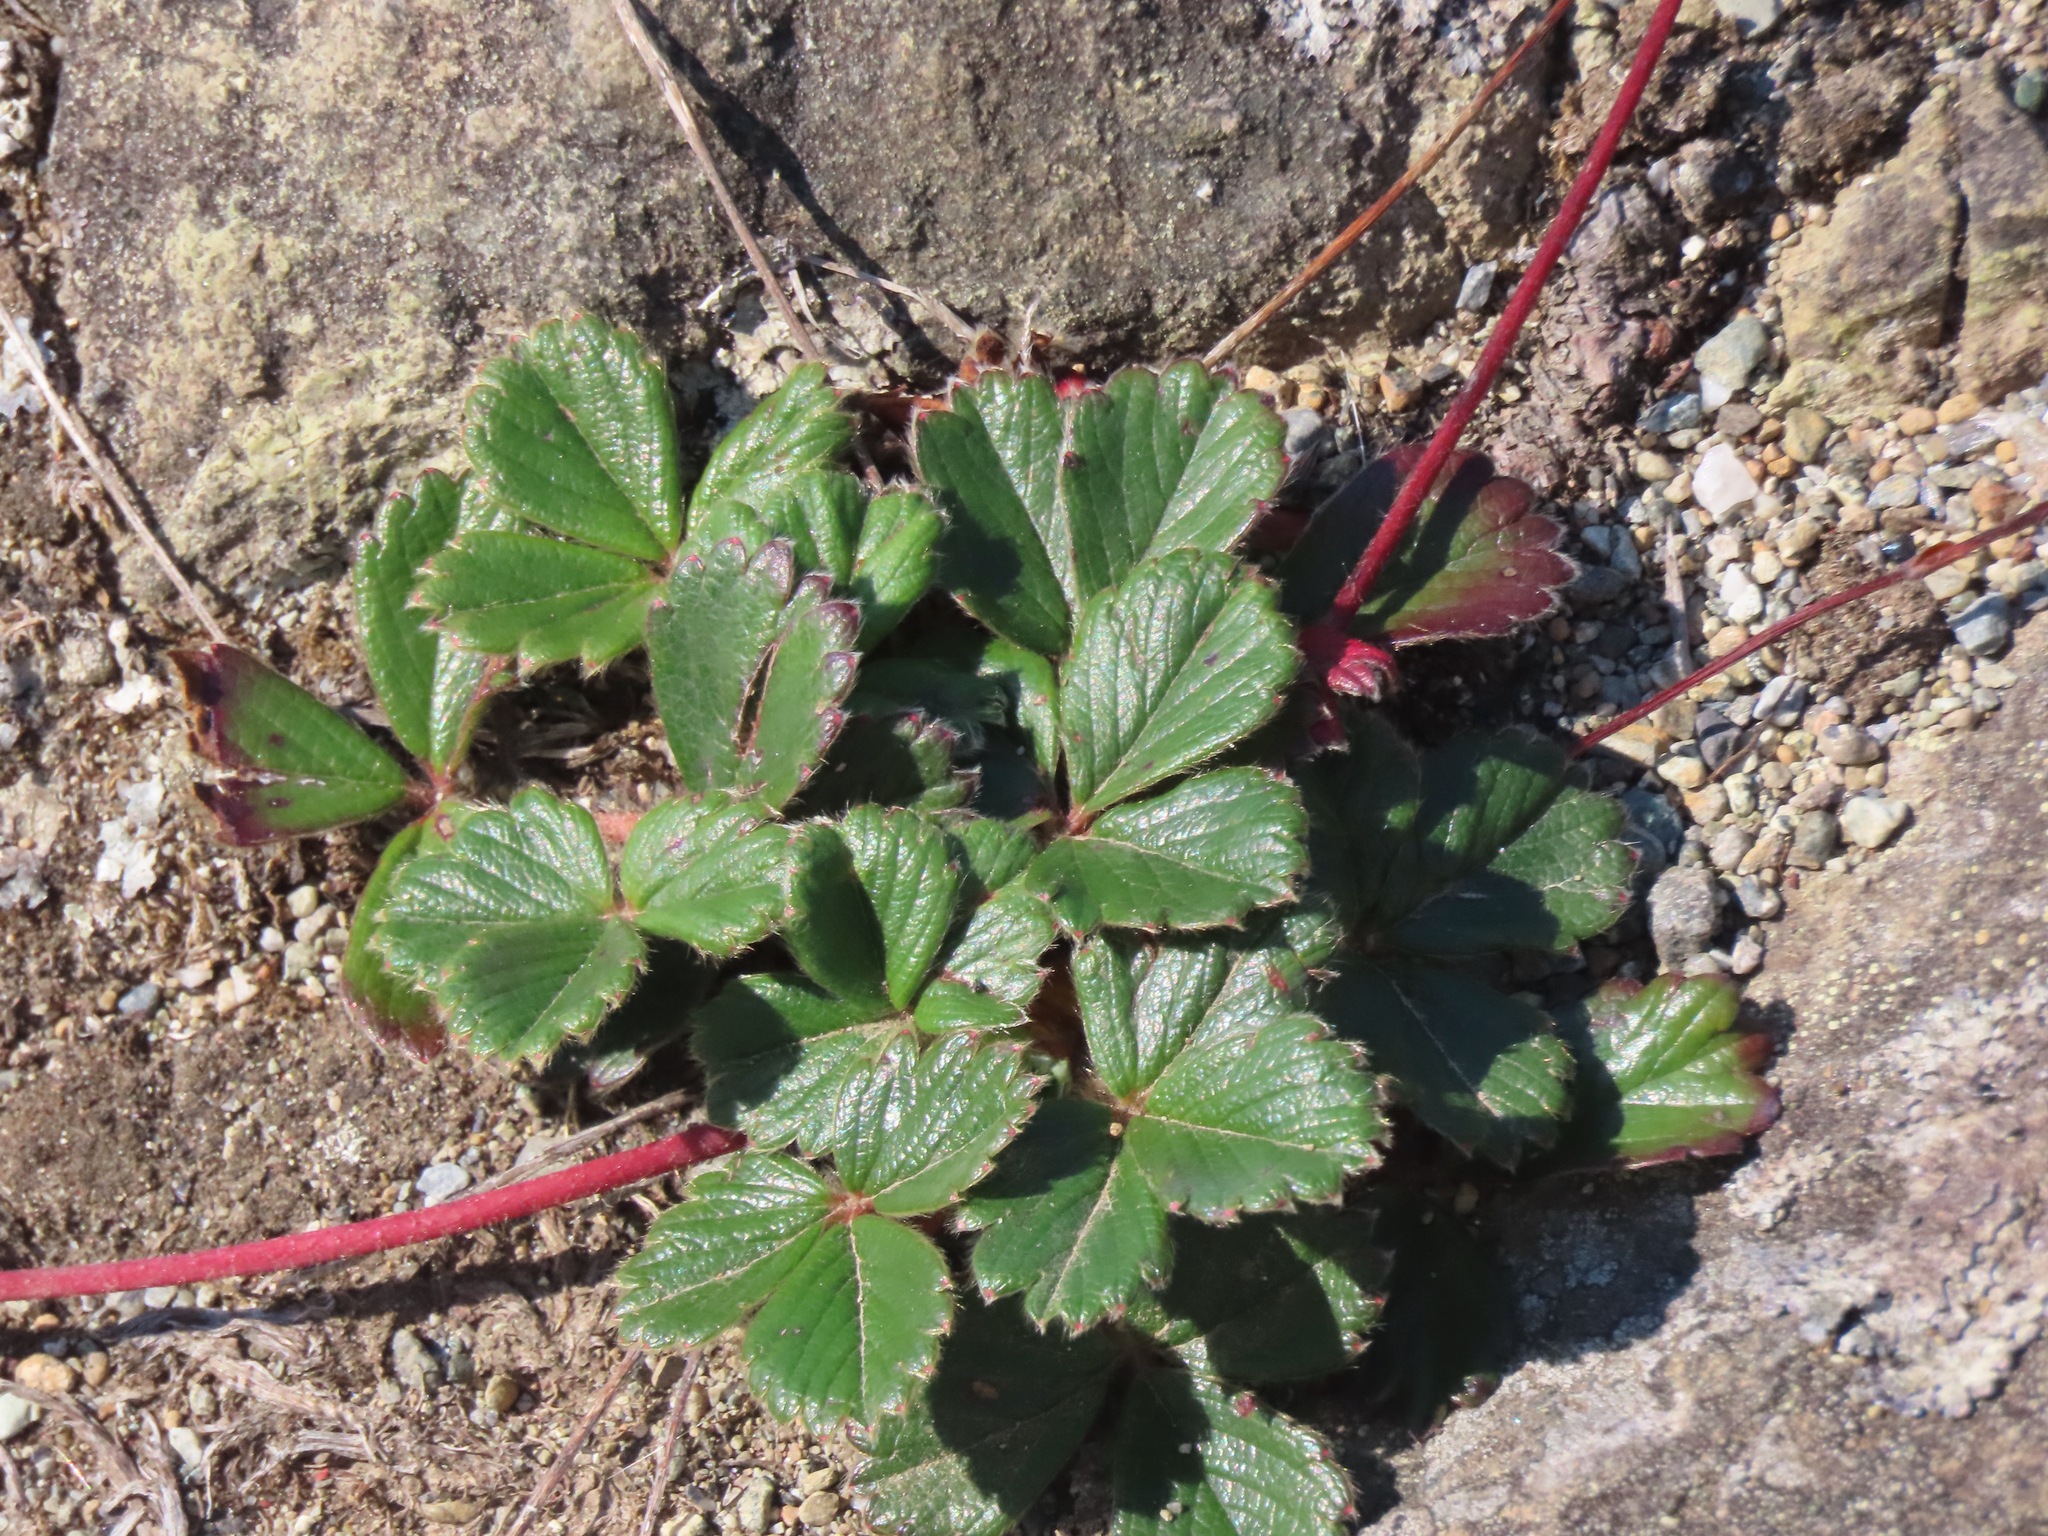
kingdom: Plantae
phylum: Tracheophyta
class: Magnoliopsida
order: Rosales
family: Rosaceae
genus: Fragaria
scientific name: Fragaria chiloensis
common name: Beach strawberry
